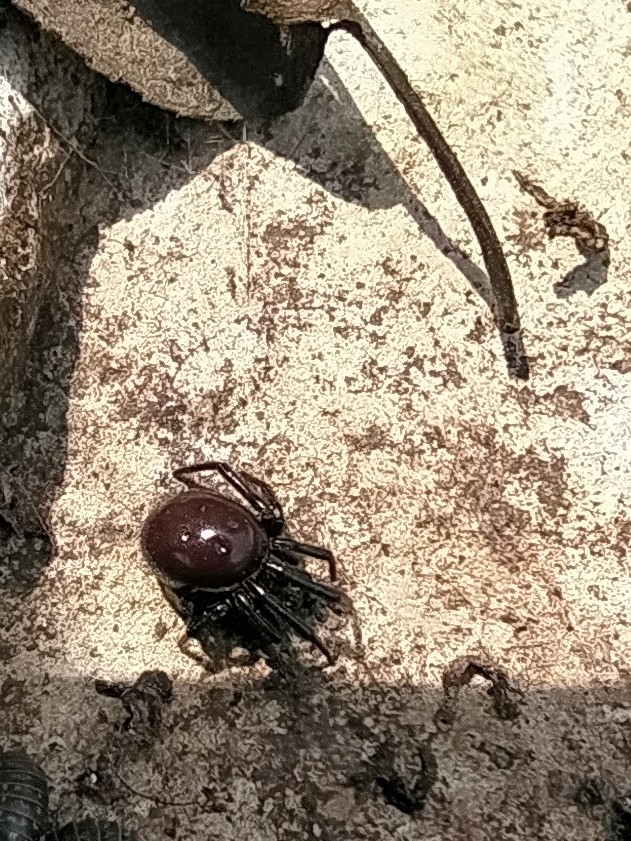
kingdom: Animalia
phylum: Arthropoda
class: Arachnida
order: Araneae
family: Theridiidae
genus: Steatoda
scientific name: Steatoda paykulliana
